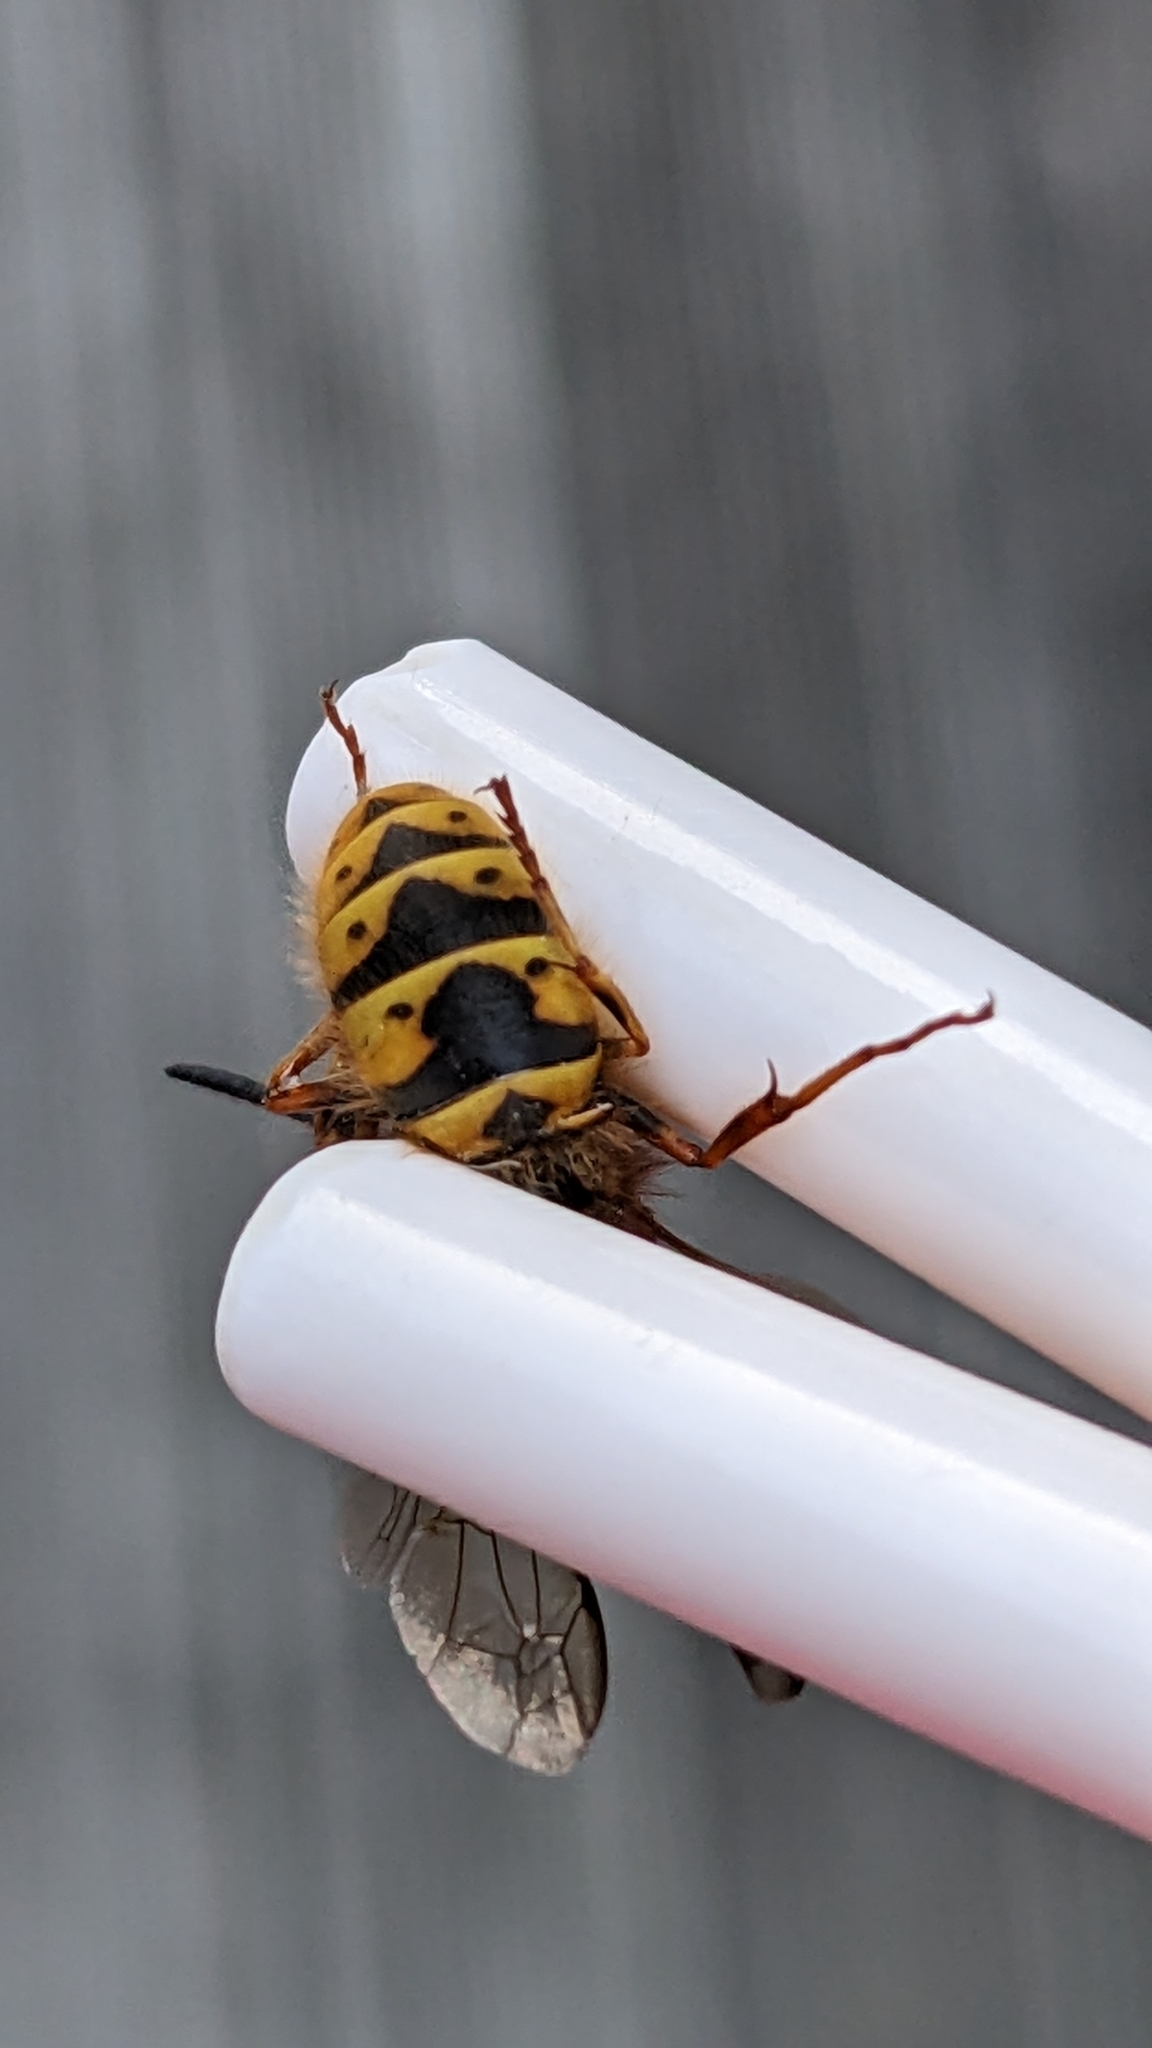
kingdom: Animalia
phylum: Arthropoda
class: Insecta
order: Hymenoptera
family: Vespidae
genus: Vespula
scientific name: Vespula vulgaris
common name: Common wasp
